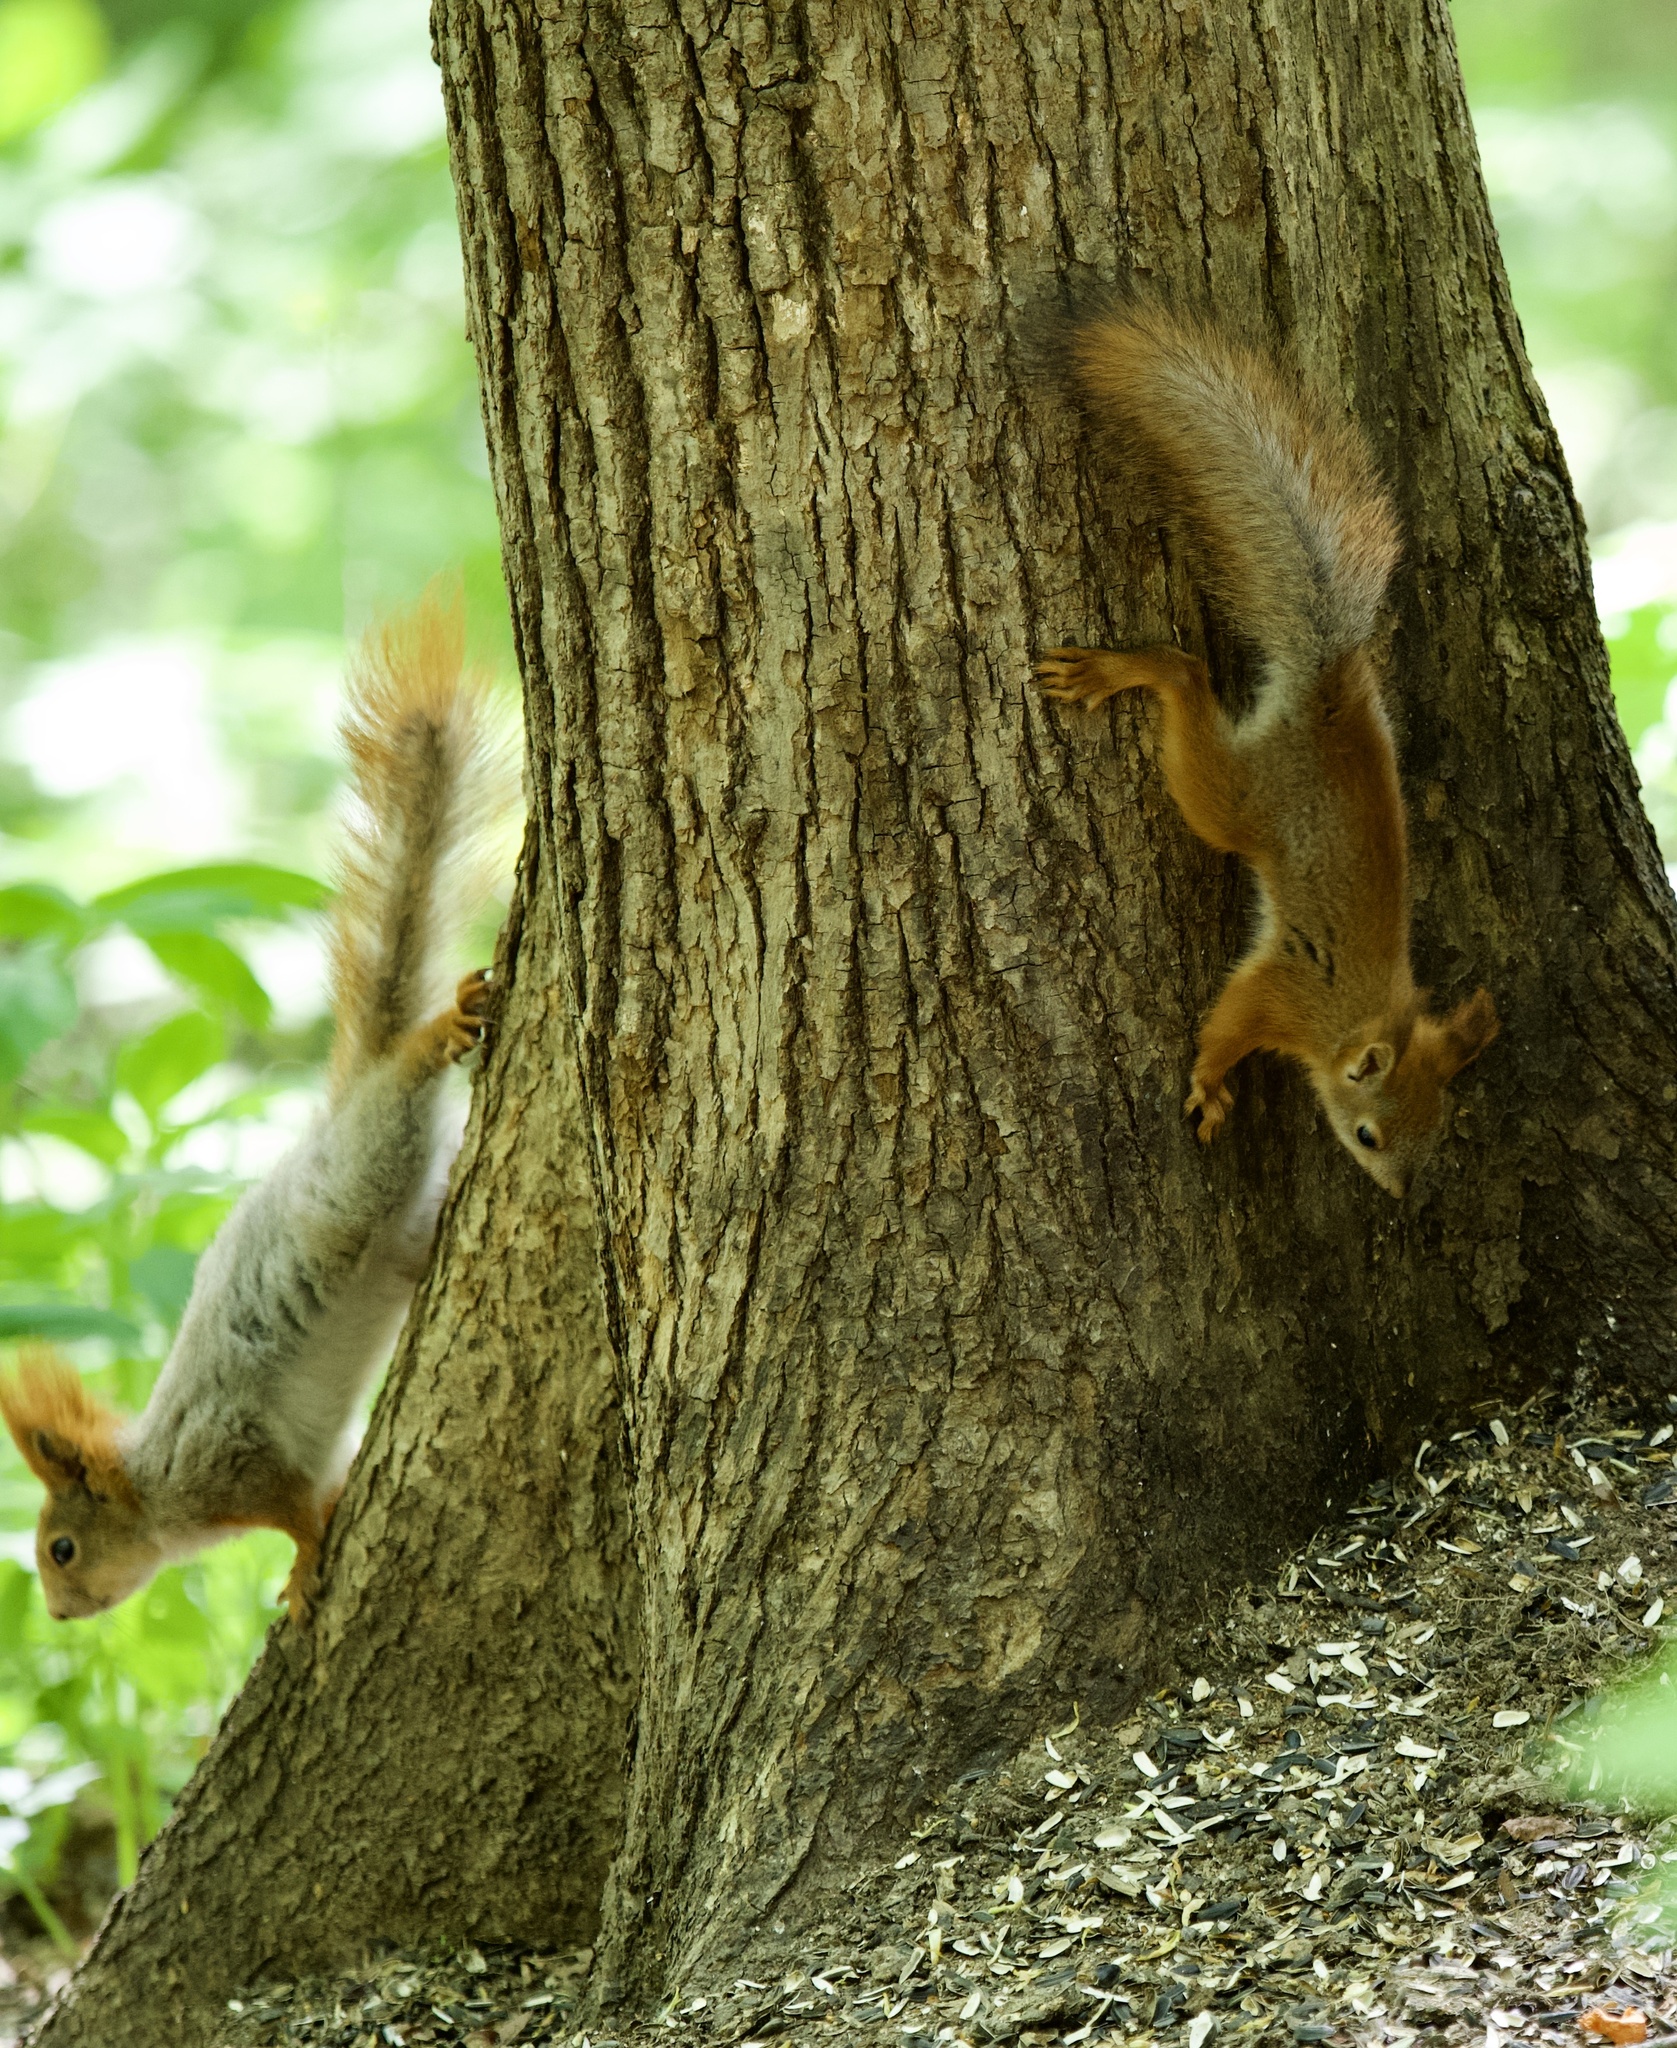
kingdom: Animalia
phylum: Chordata
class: Mammalia
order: Rodentia
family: Sciuridae
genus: Sciurus
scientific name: Sciurus vulgaris
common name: Eurasian red squirrel
